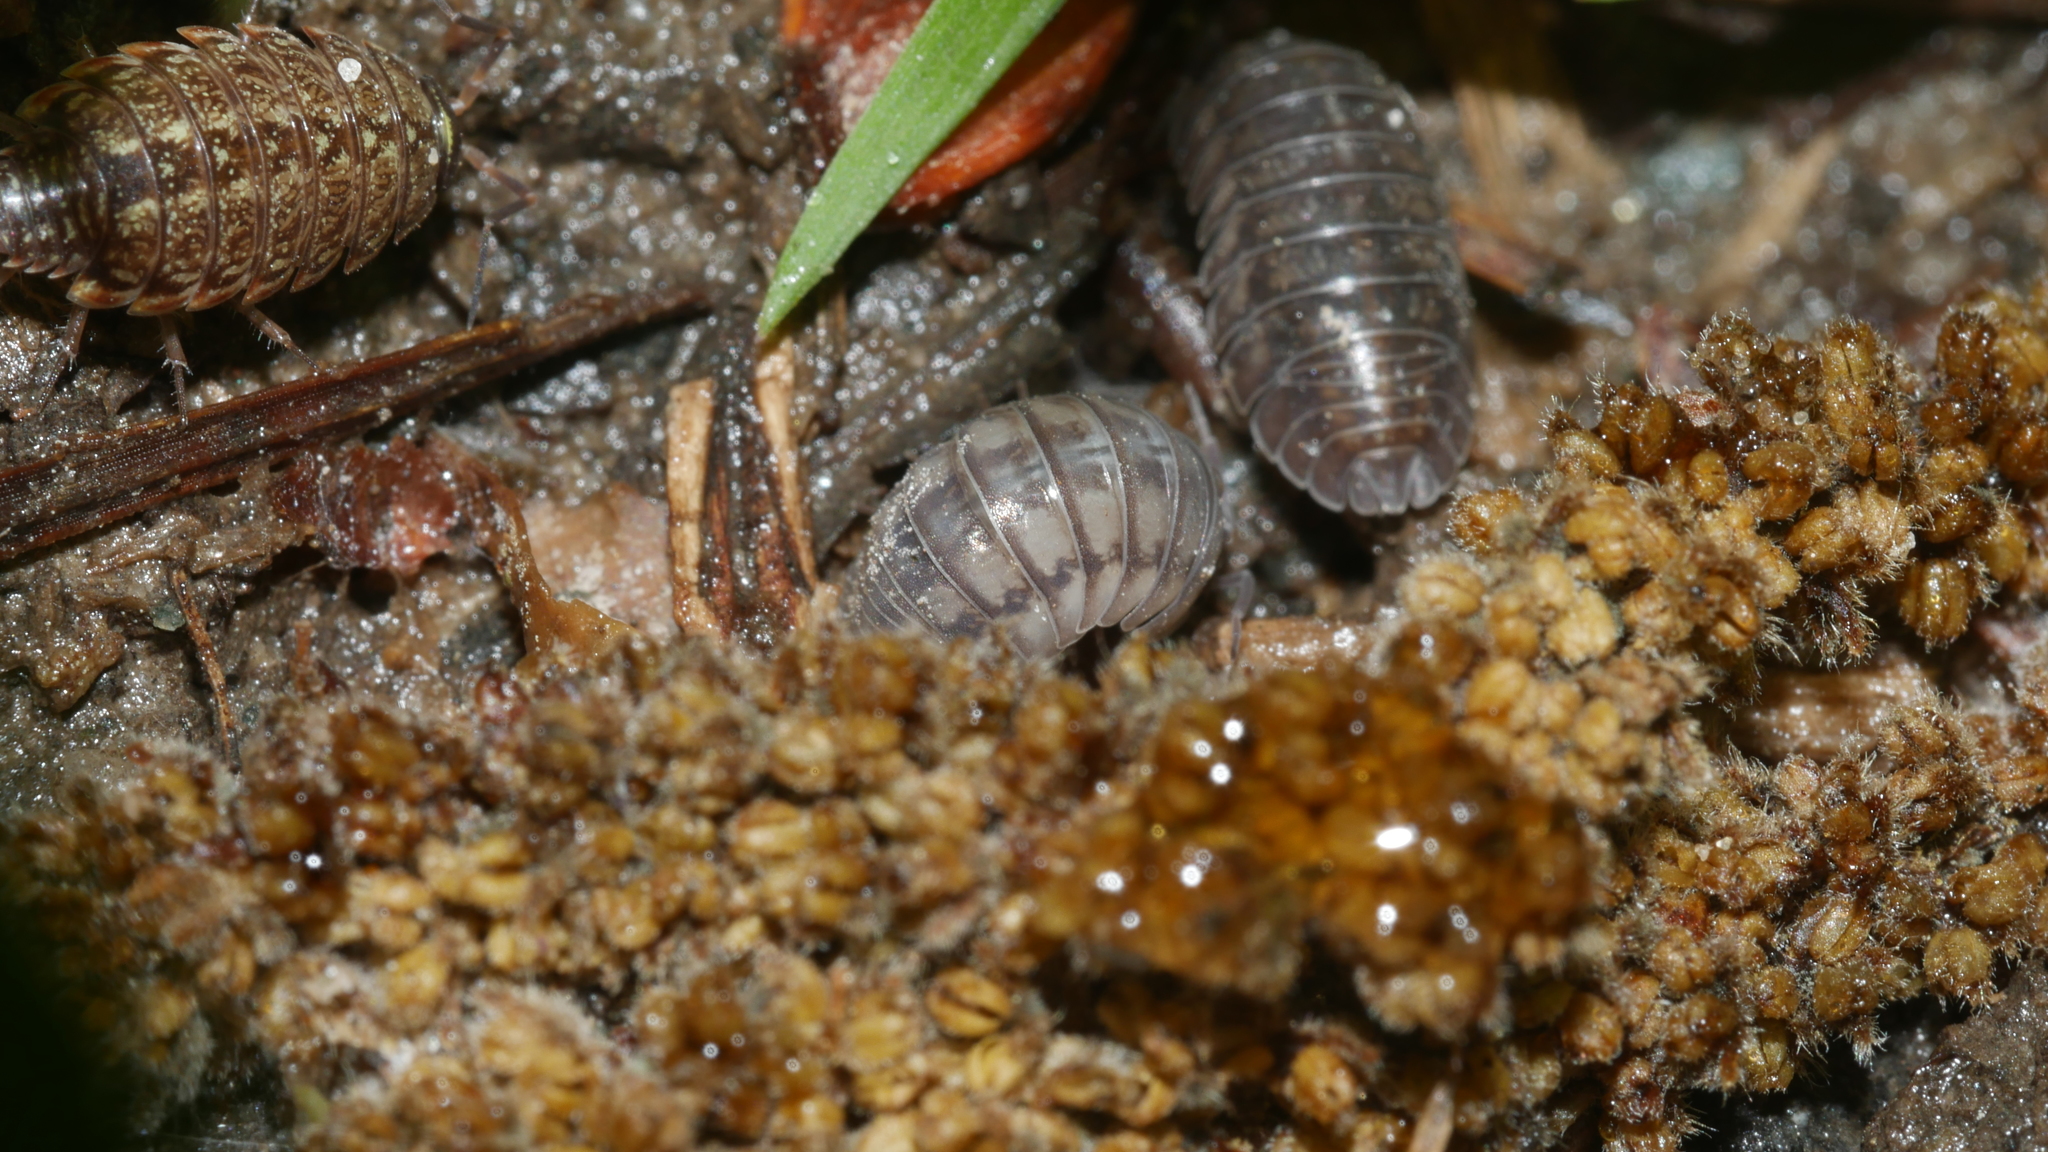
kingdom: Animalia
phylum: Arthropoda
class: Malacostraca
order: Isopoda
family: Armadillidiidae
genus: Armadillidium
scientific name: Armadillidium nasatum
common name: Isopod
